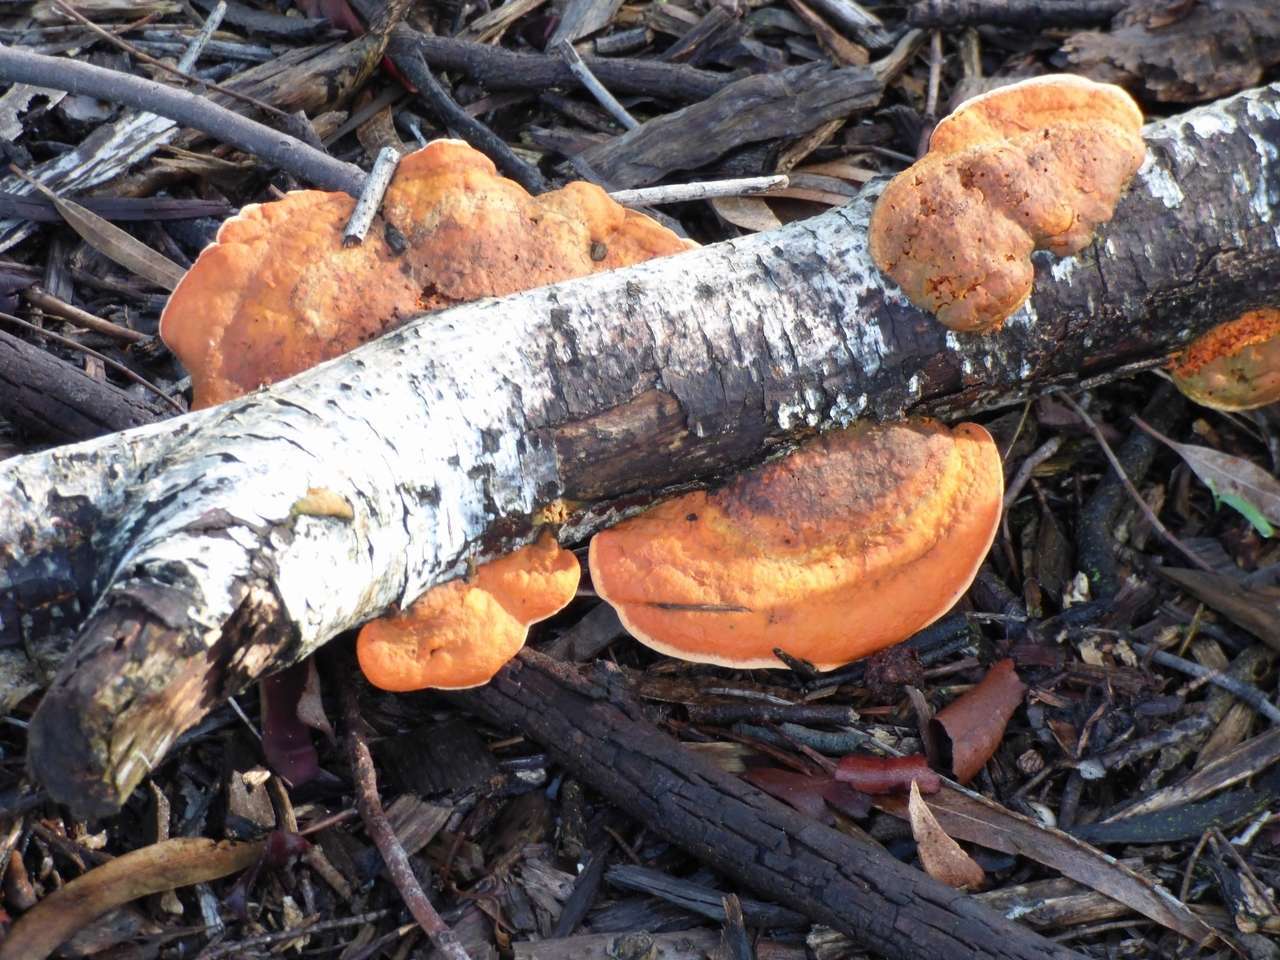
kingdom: Fungi
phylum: Basidiomycota
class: Agaricomycetes
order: Polyporales
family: Polyporaceae
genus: Trametes
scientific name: Trametes coccinea
